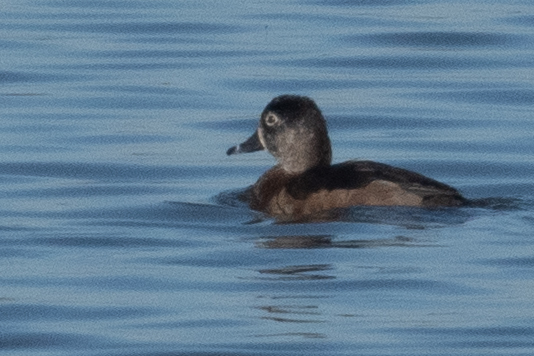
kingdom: Animalia
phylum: Chordata
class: Aves
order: Anseriformes
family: Anatidae
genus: Aythya
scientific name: Aythya collaris
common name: Ring-necked duck
